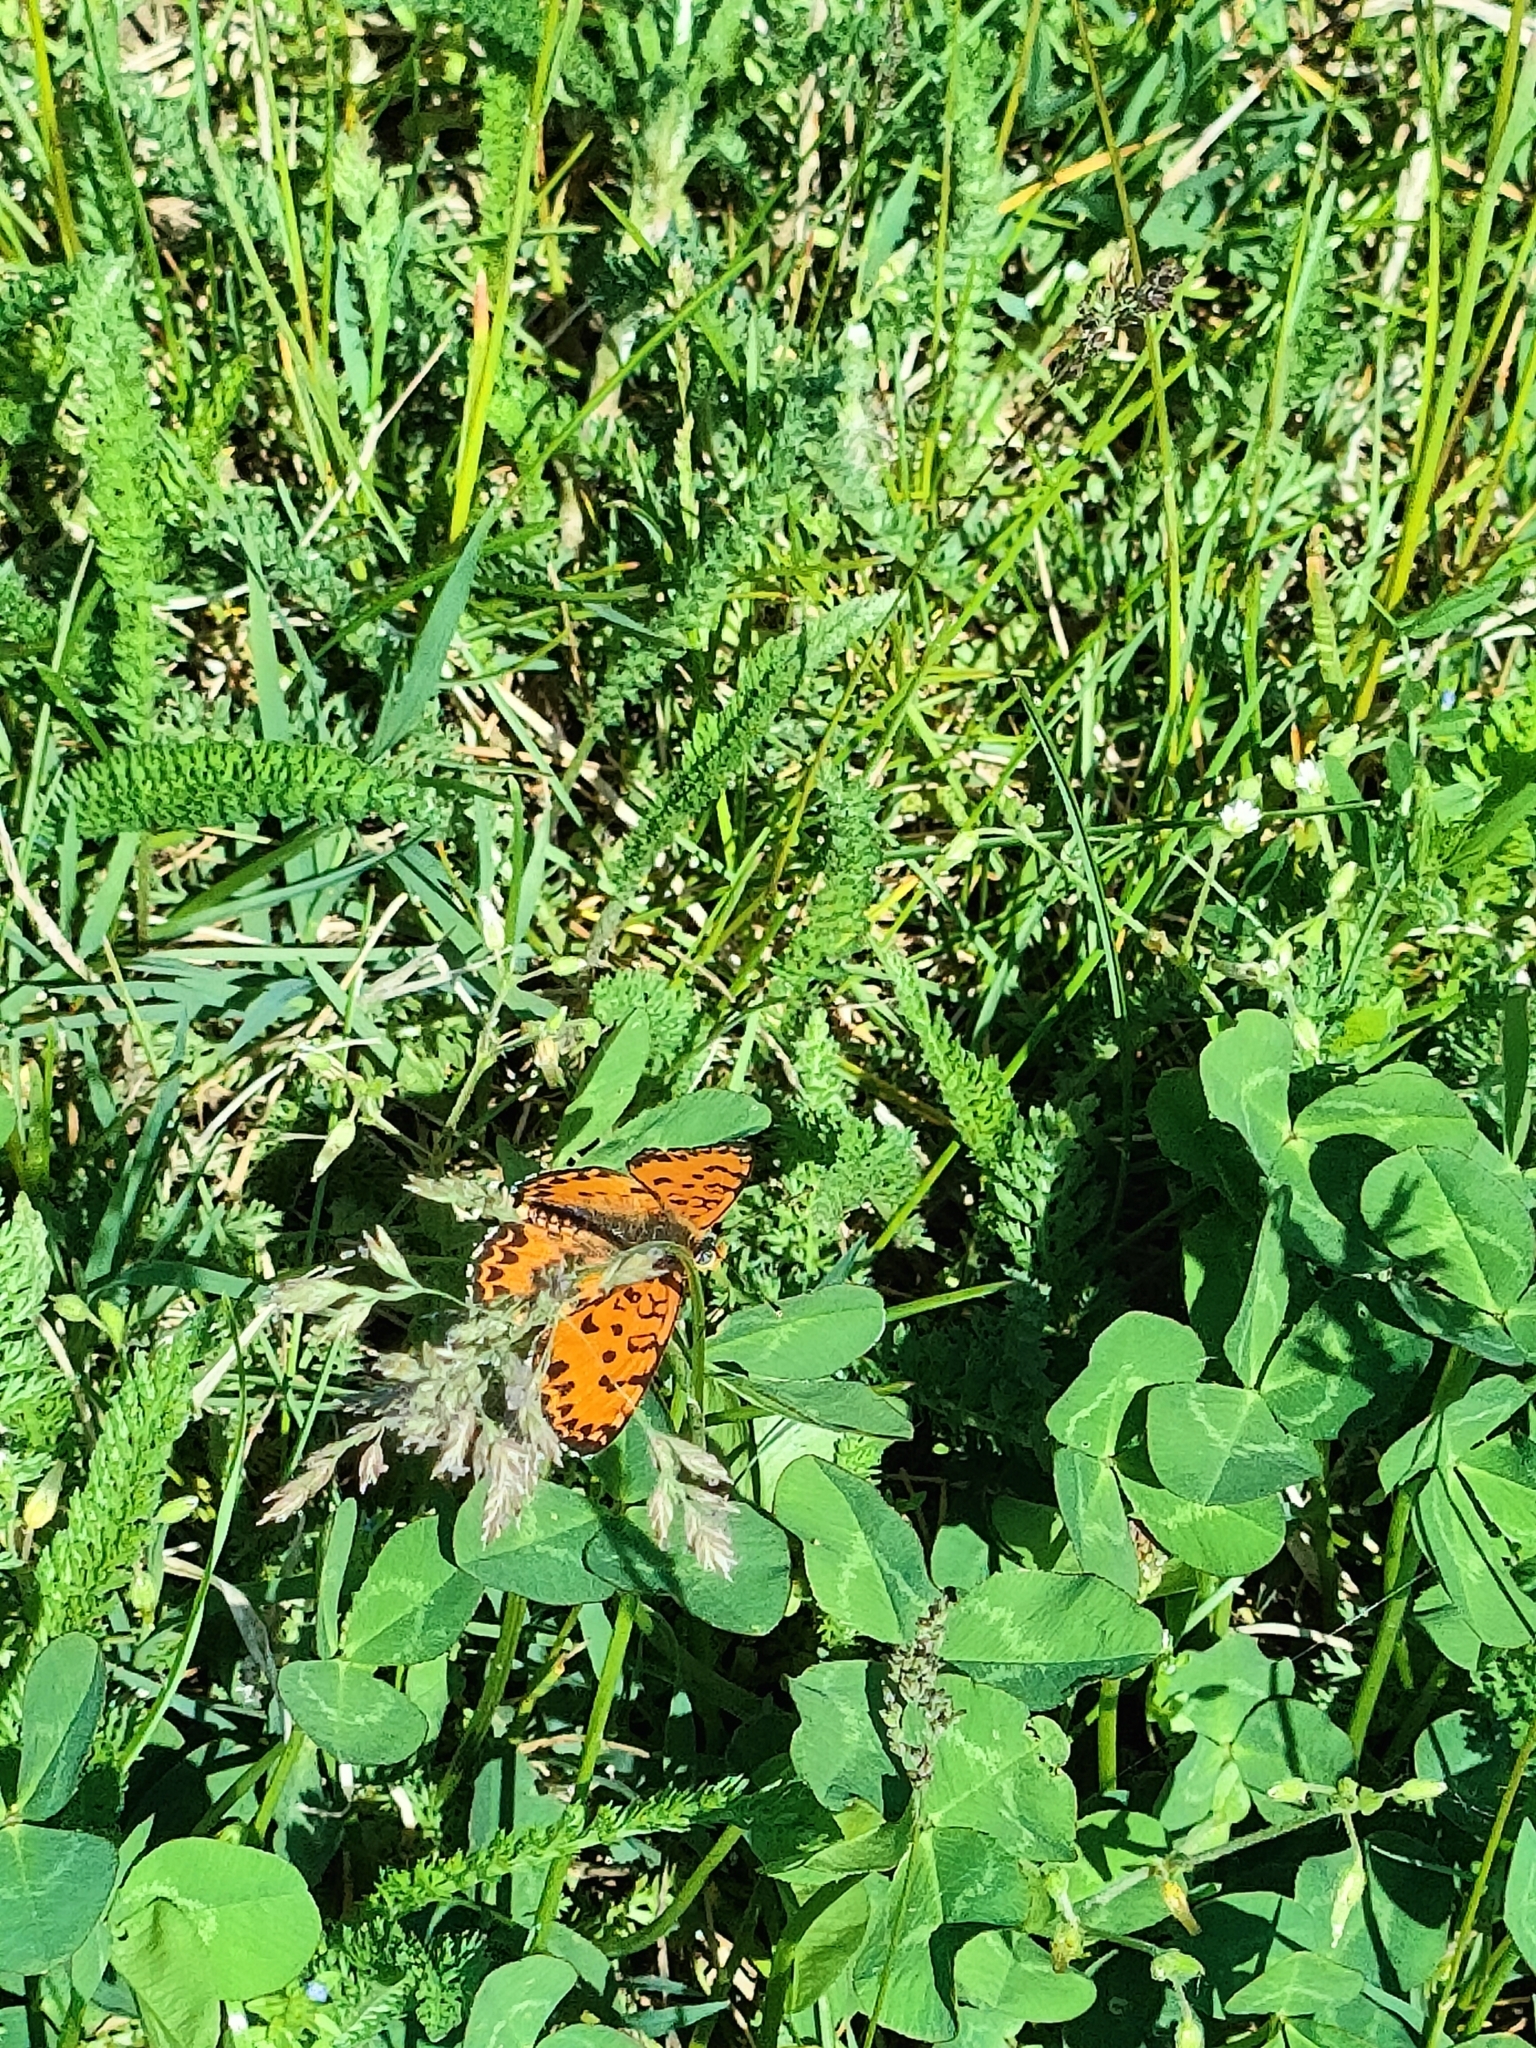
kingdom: Animalia
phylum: Arthropoda
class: Insecta
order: Lepidoptera
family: Nymphalidae
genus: Melitaea
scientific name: Melitaea didyma
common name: Spotted fritillary
